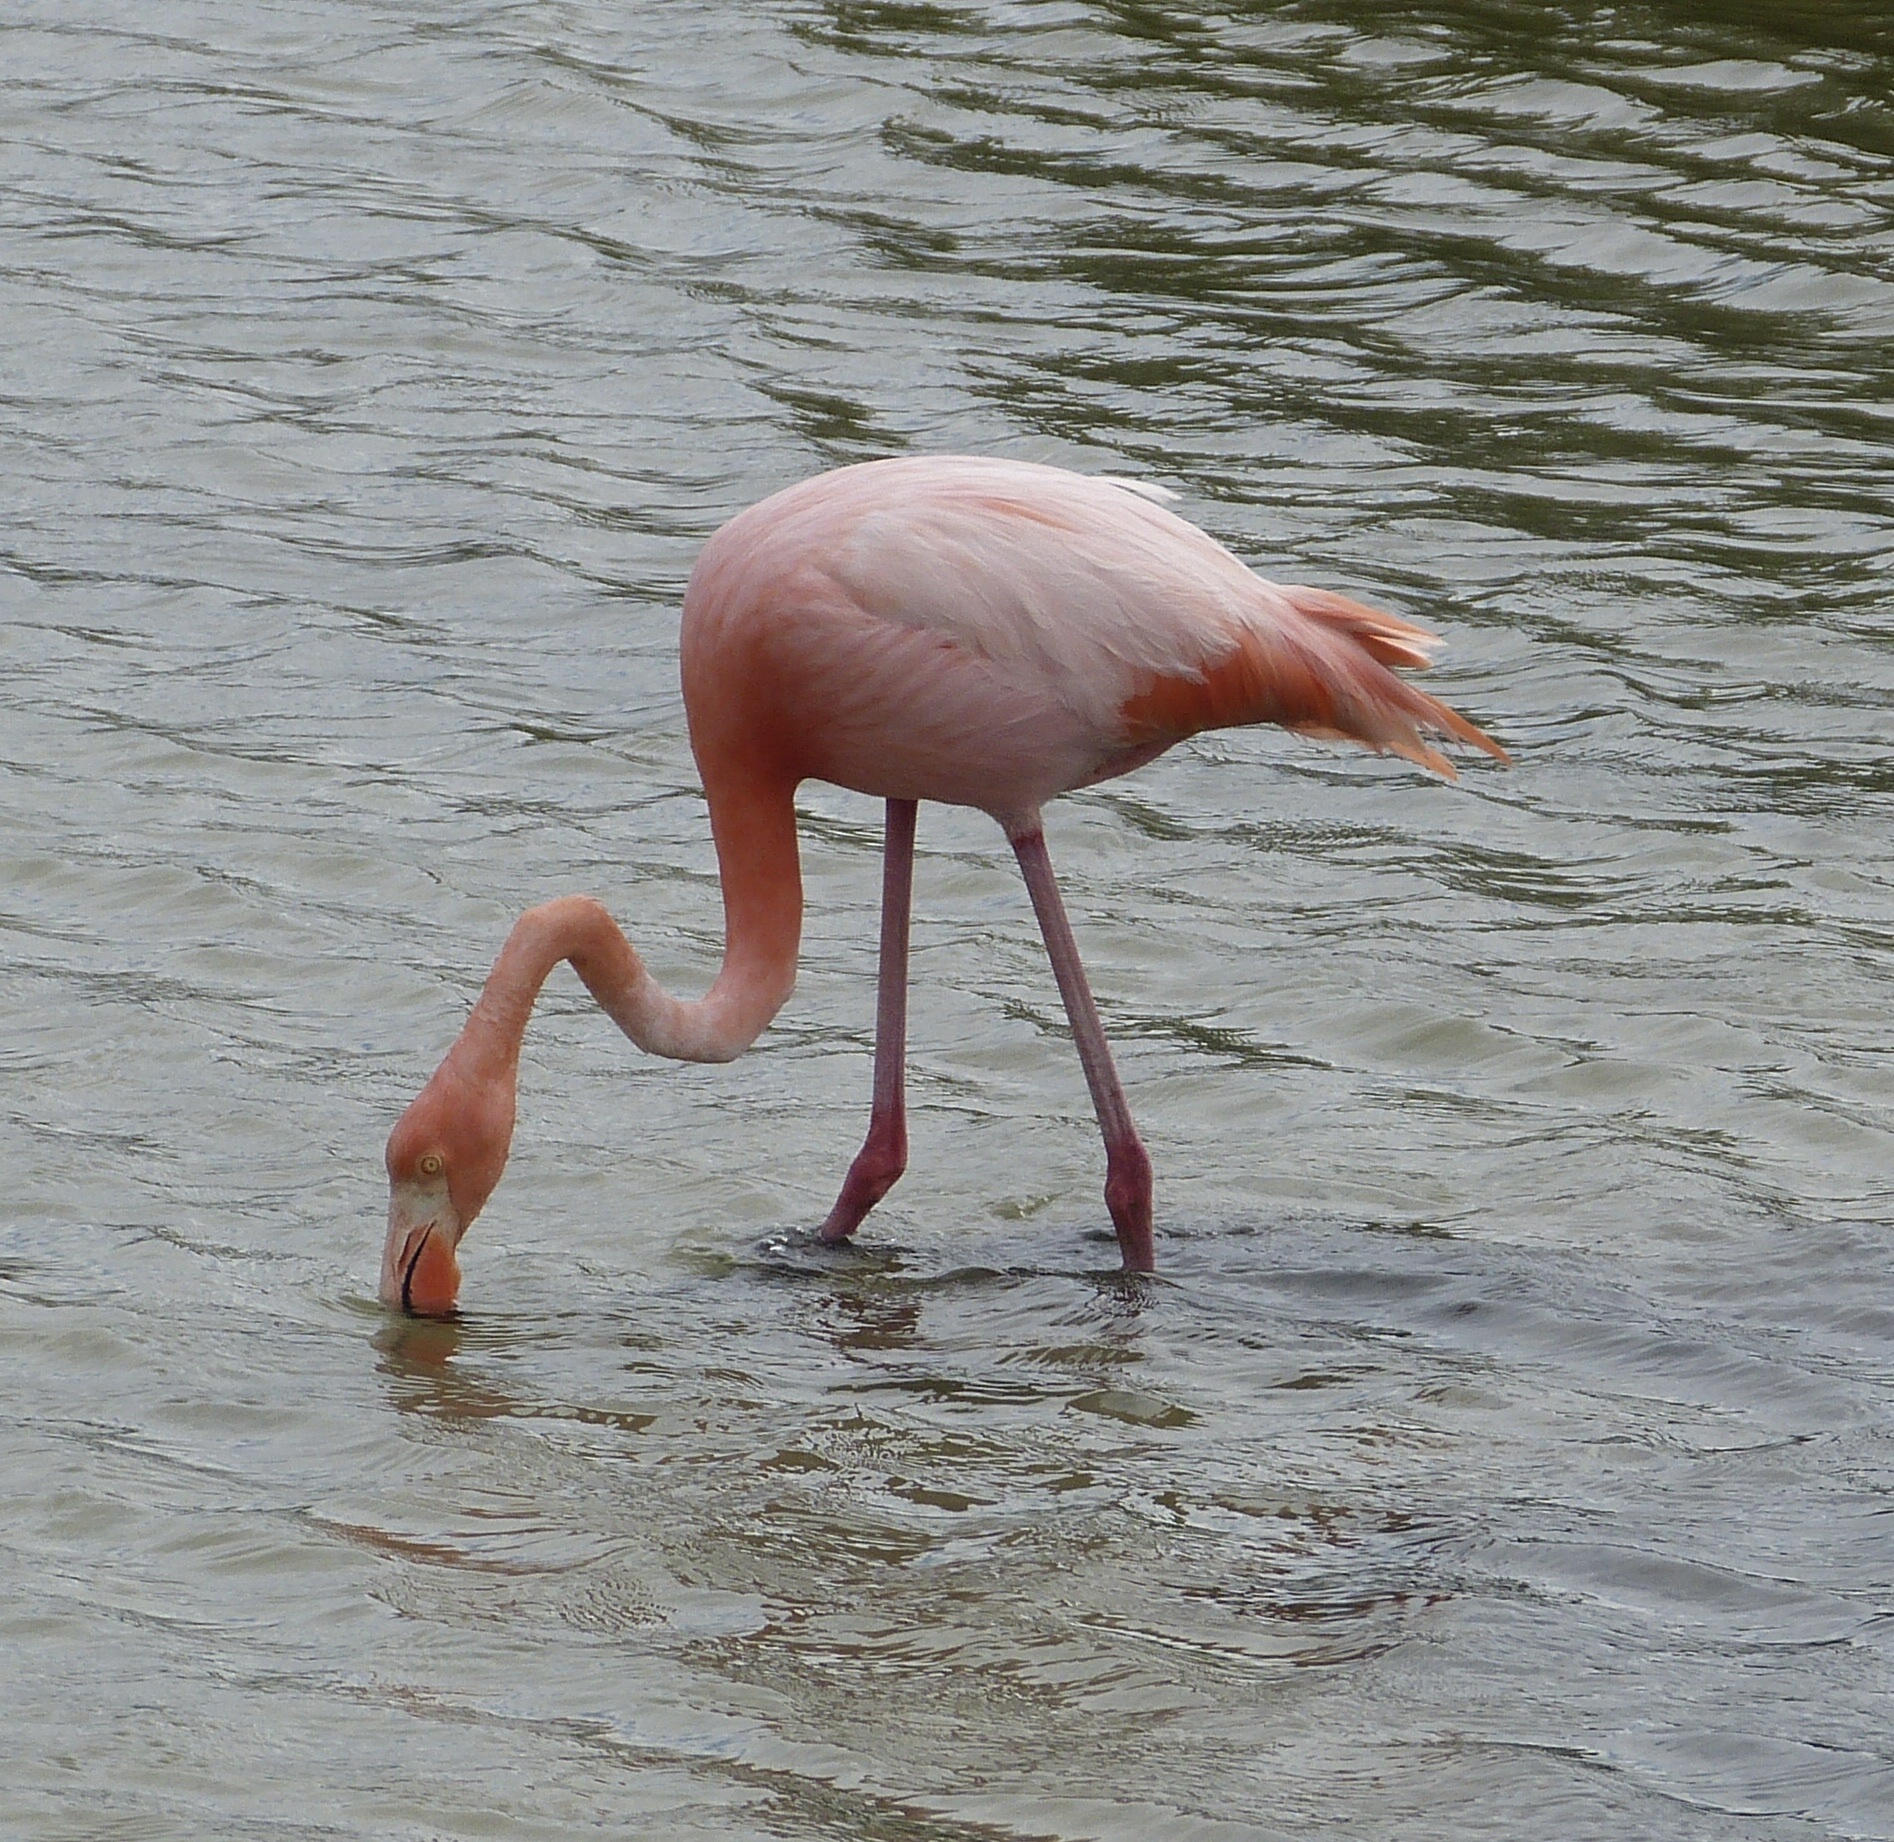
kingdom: Animalia
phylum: Chordata
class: Aves
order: Phoenicopteriformes
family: Phoenicopteridae
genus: Phoenicopterus
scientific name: Phoenicopterus ruber
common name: American flamingo
